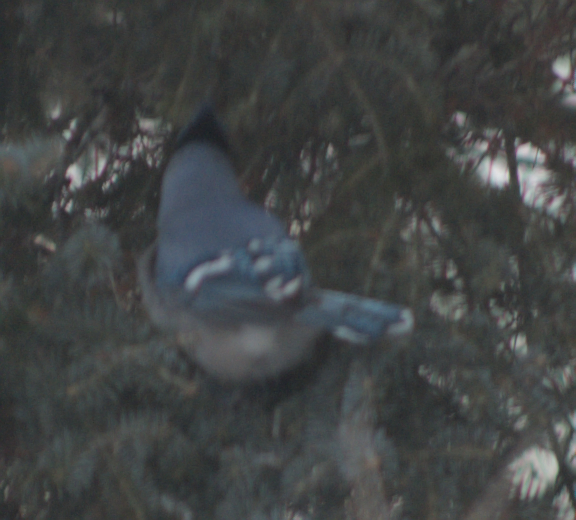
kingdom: Animalia
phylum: Chordata
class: Aves
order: Passeriformes
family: Corvidae
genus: Cyanocitta
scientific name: Cyanocitta cristata
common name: Blue jay
